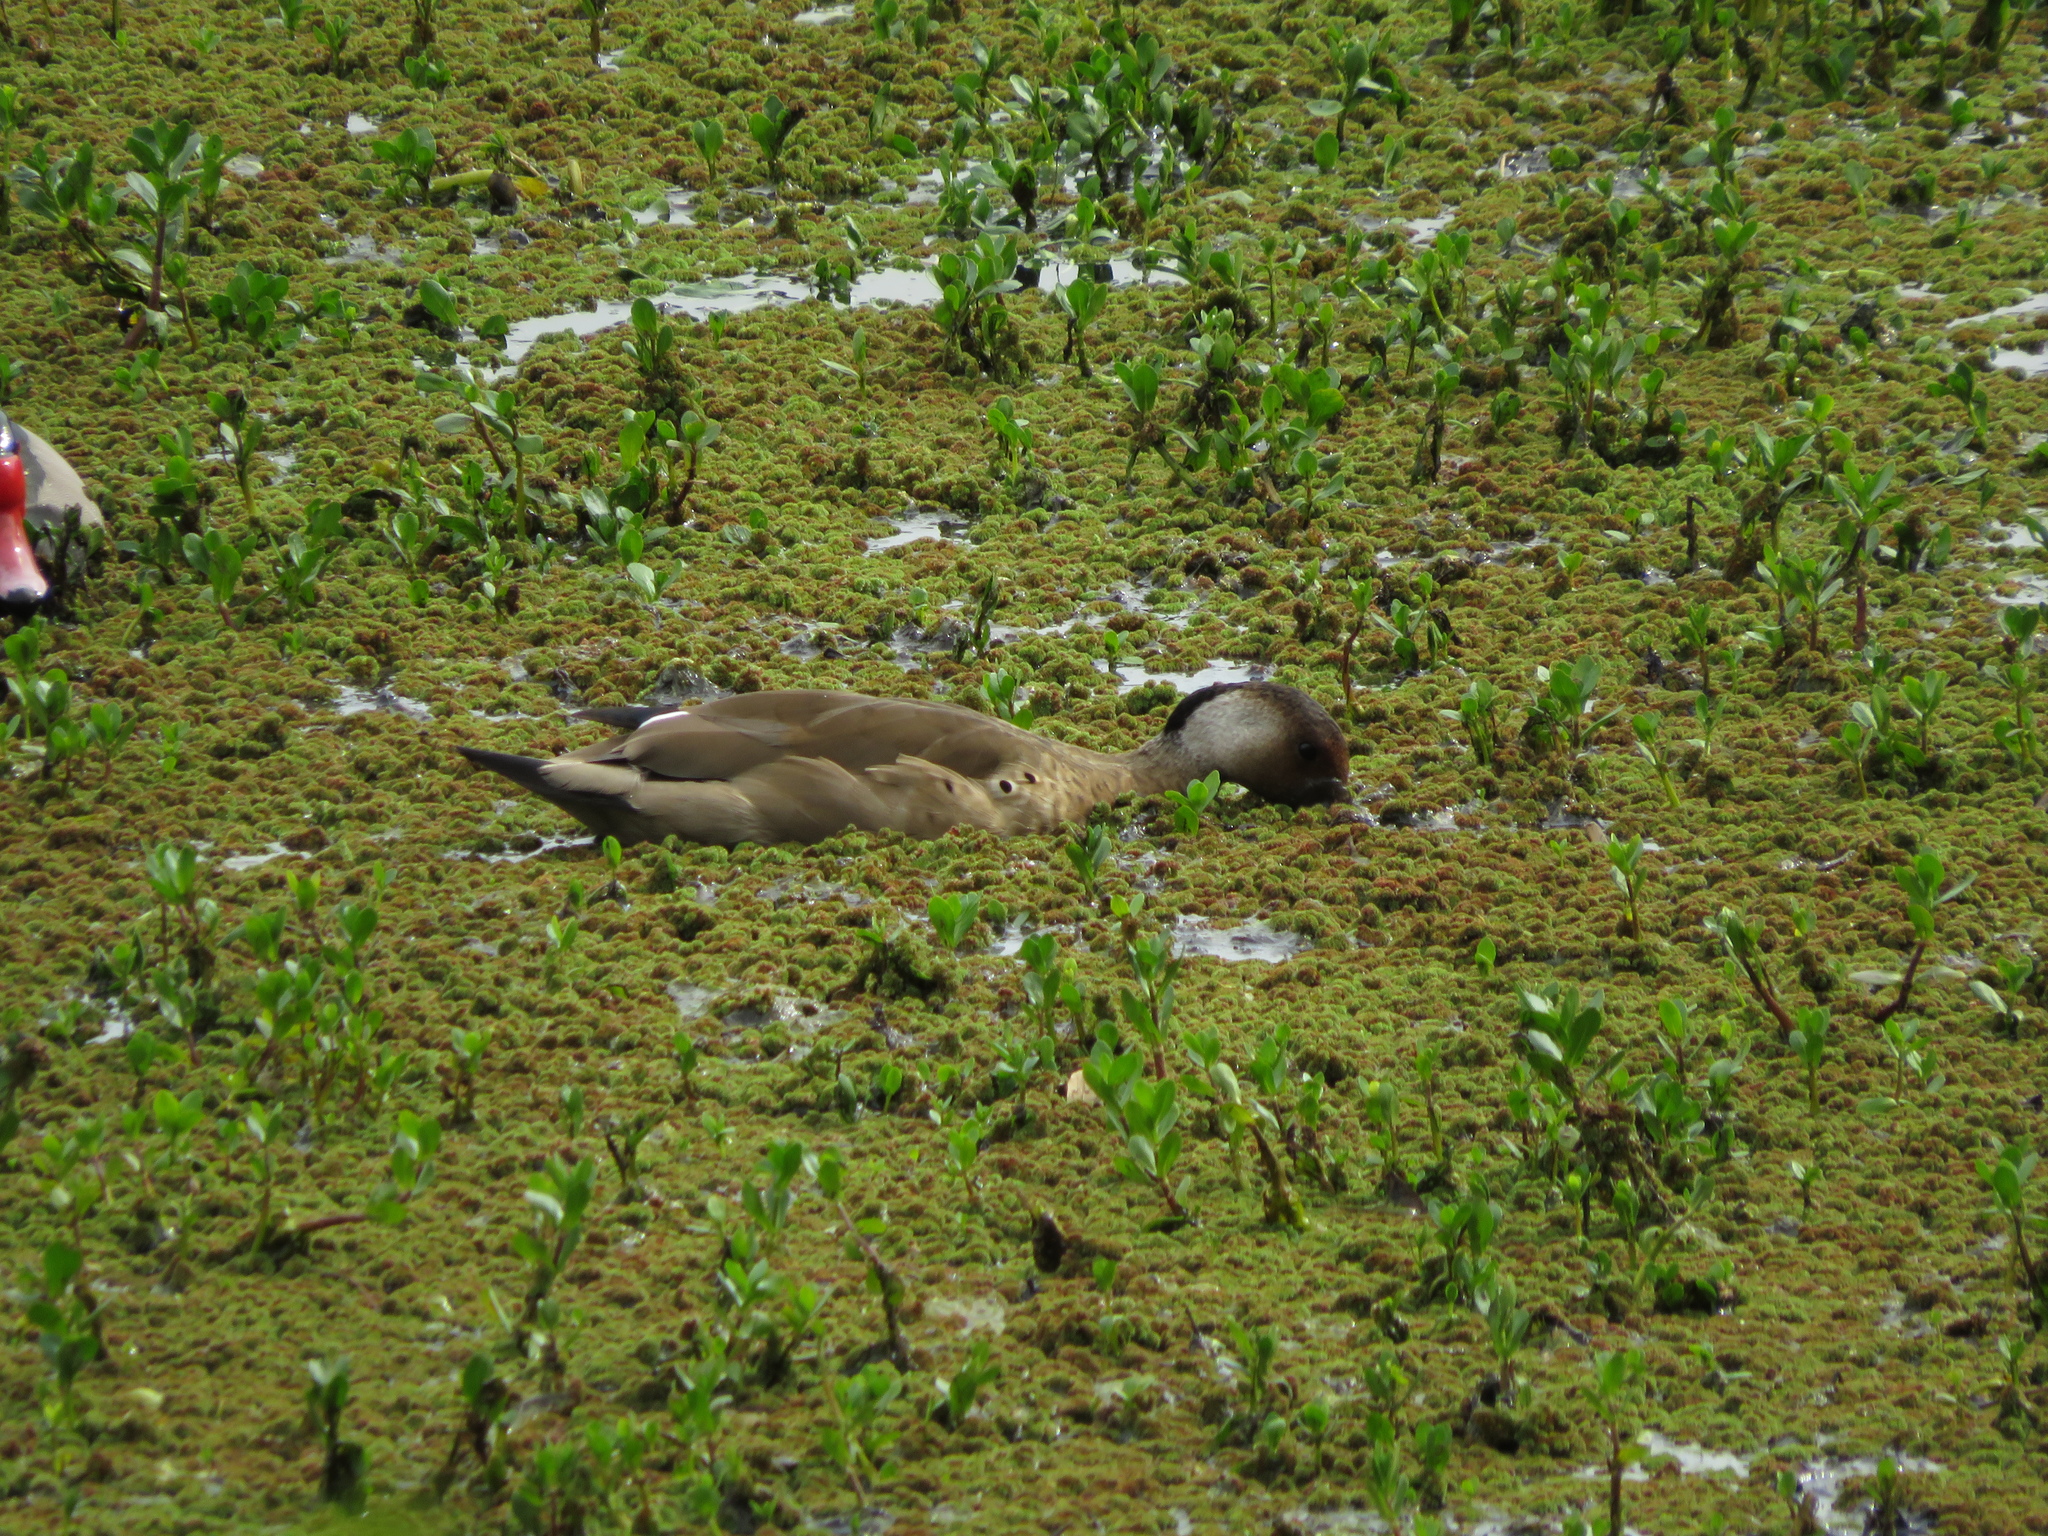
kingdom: Animalia
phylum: Chordata
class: Aves
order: Anseriformes
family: Anatidae
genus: Amazonetta
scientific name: Amazonetta brasiliensis
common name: Brazilian teal
